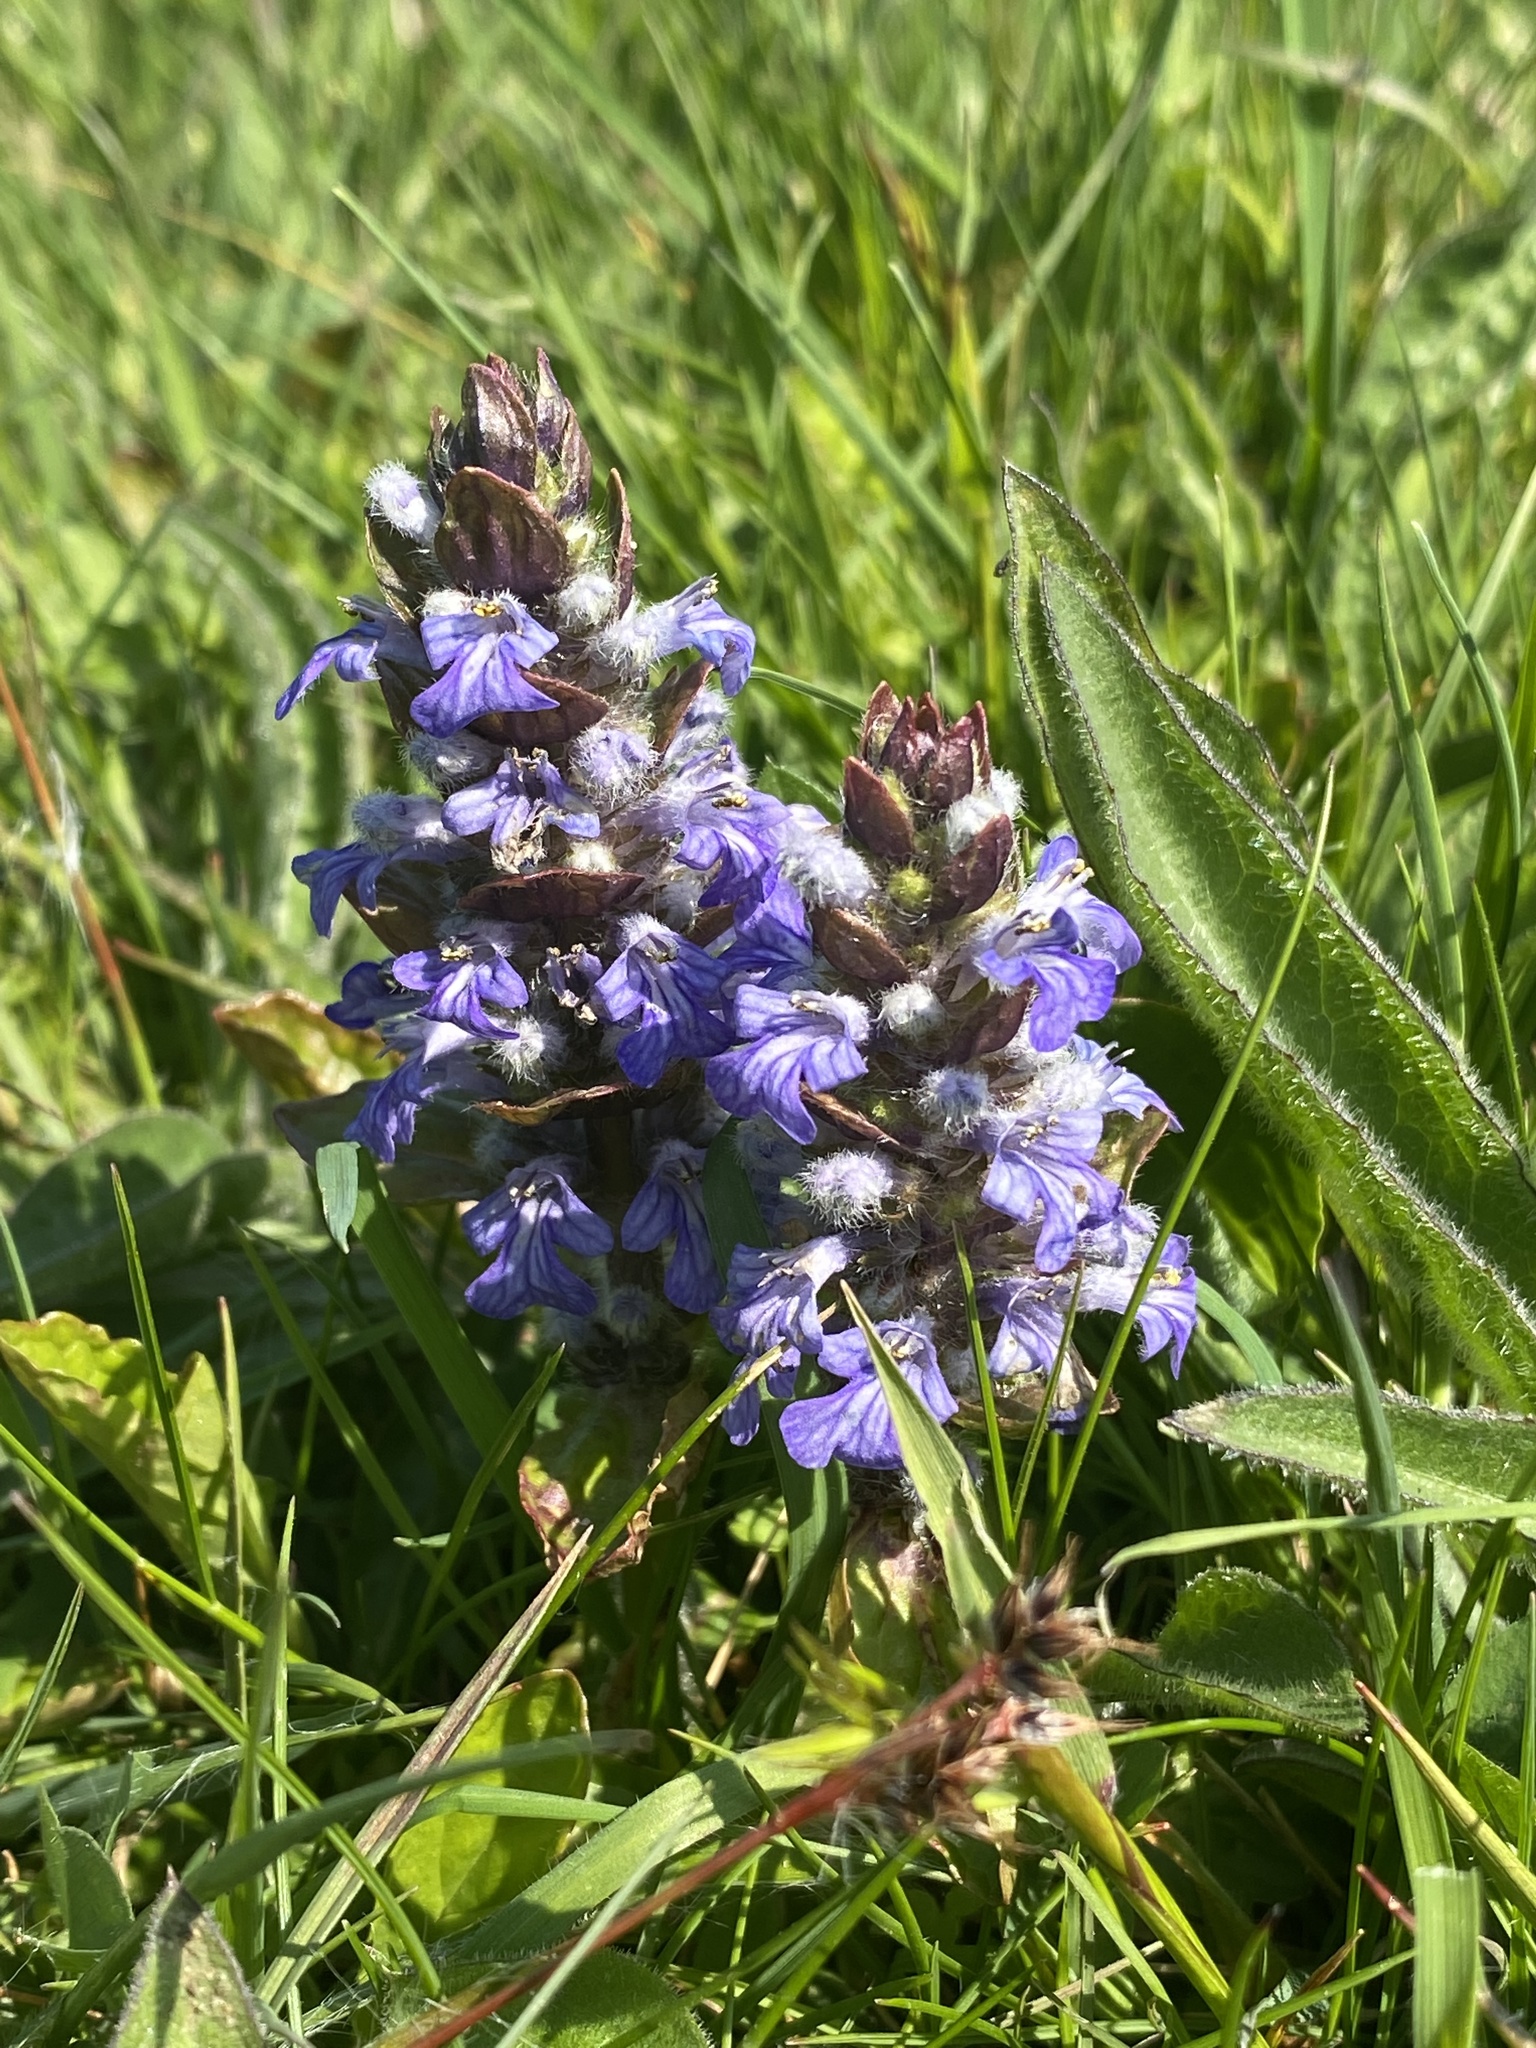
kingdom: Plantae
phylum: Tracheophyta
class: Magnoliopsida
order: Lamiales
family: Lamiaceae
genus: Ajuga
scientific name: Ajuga reptans
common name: Bugle
